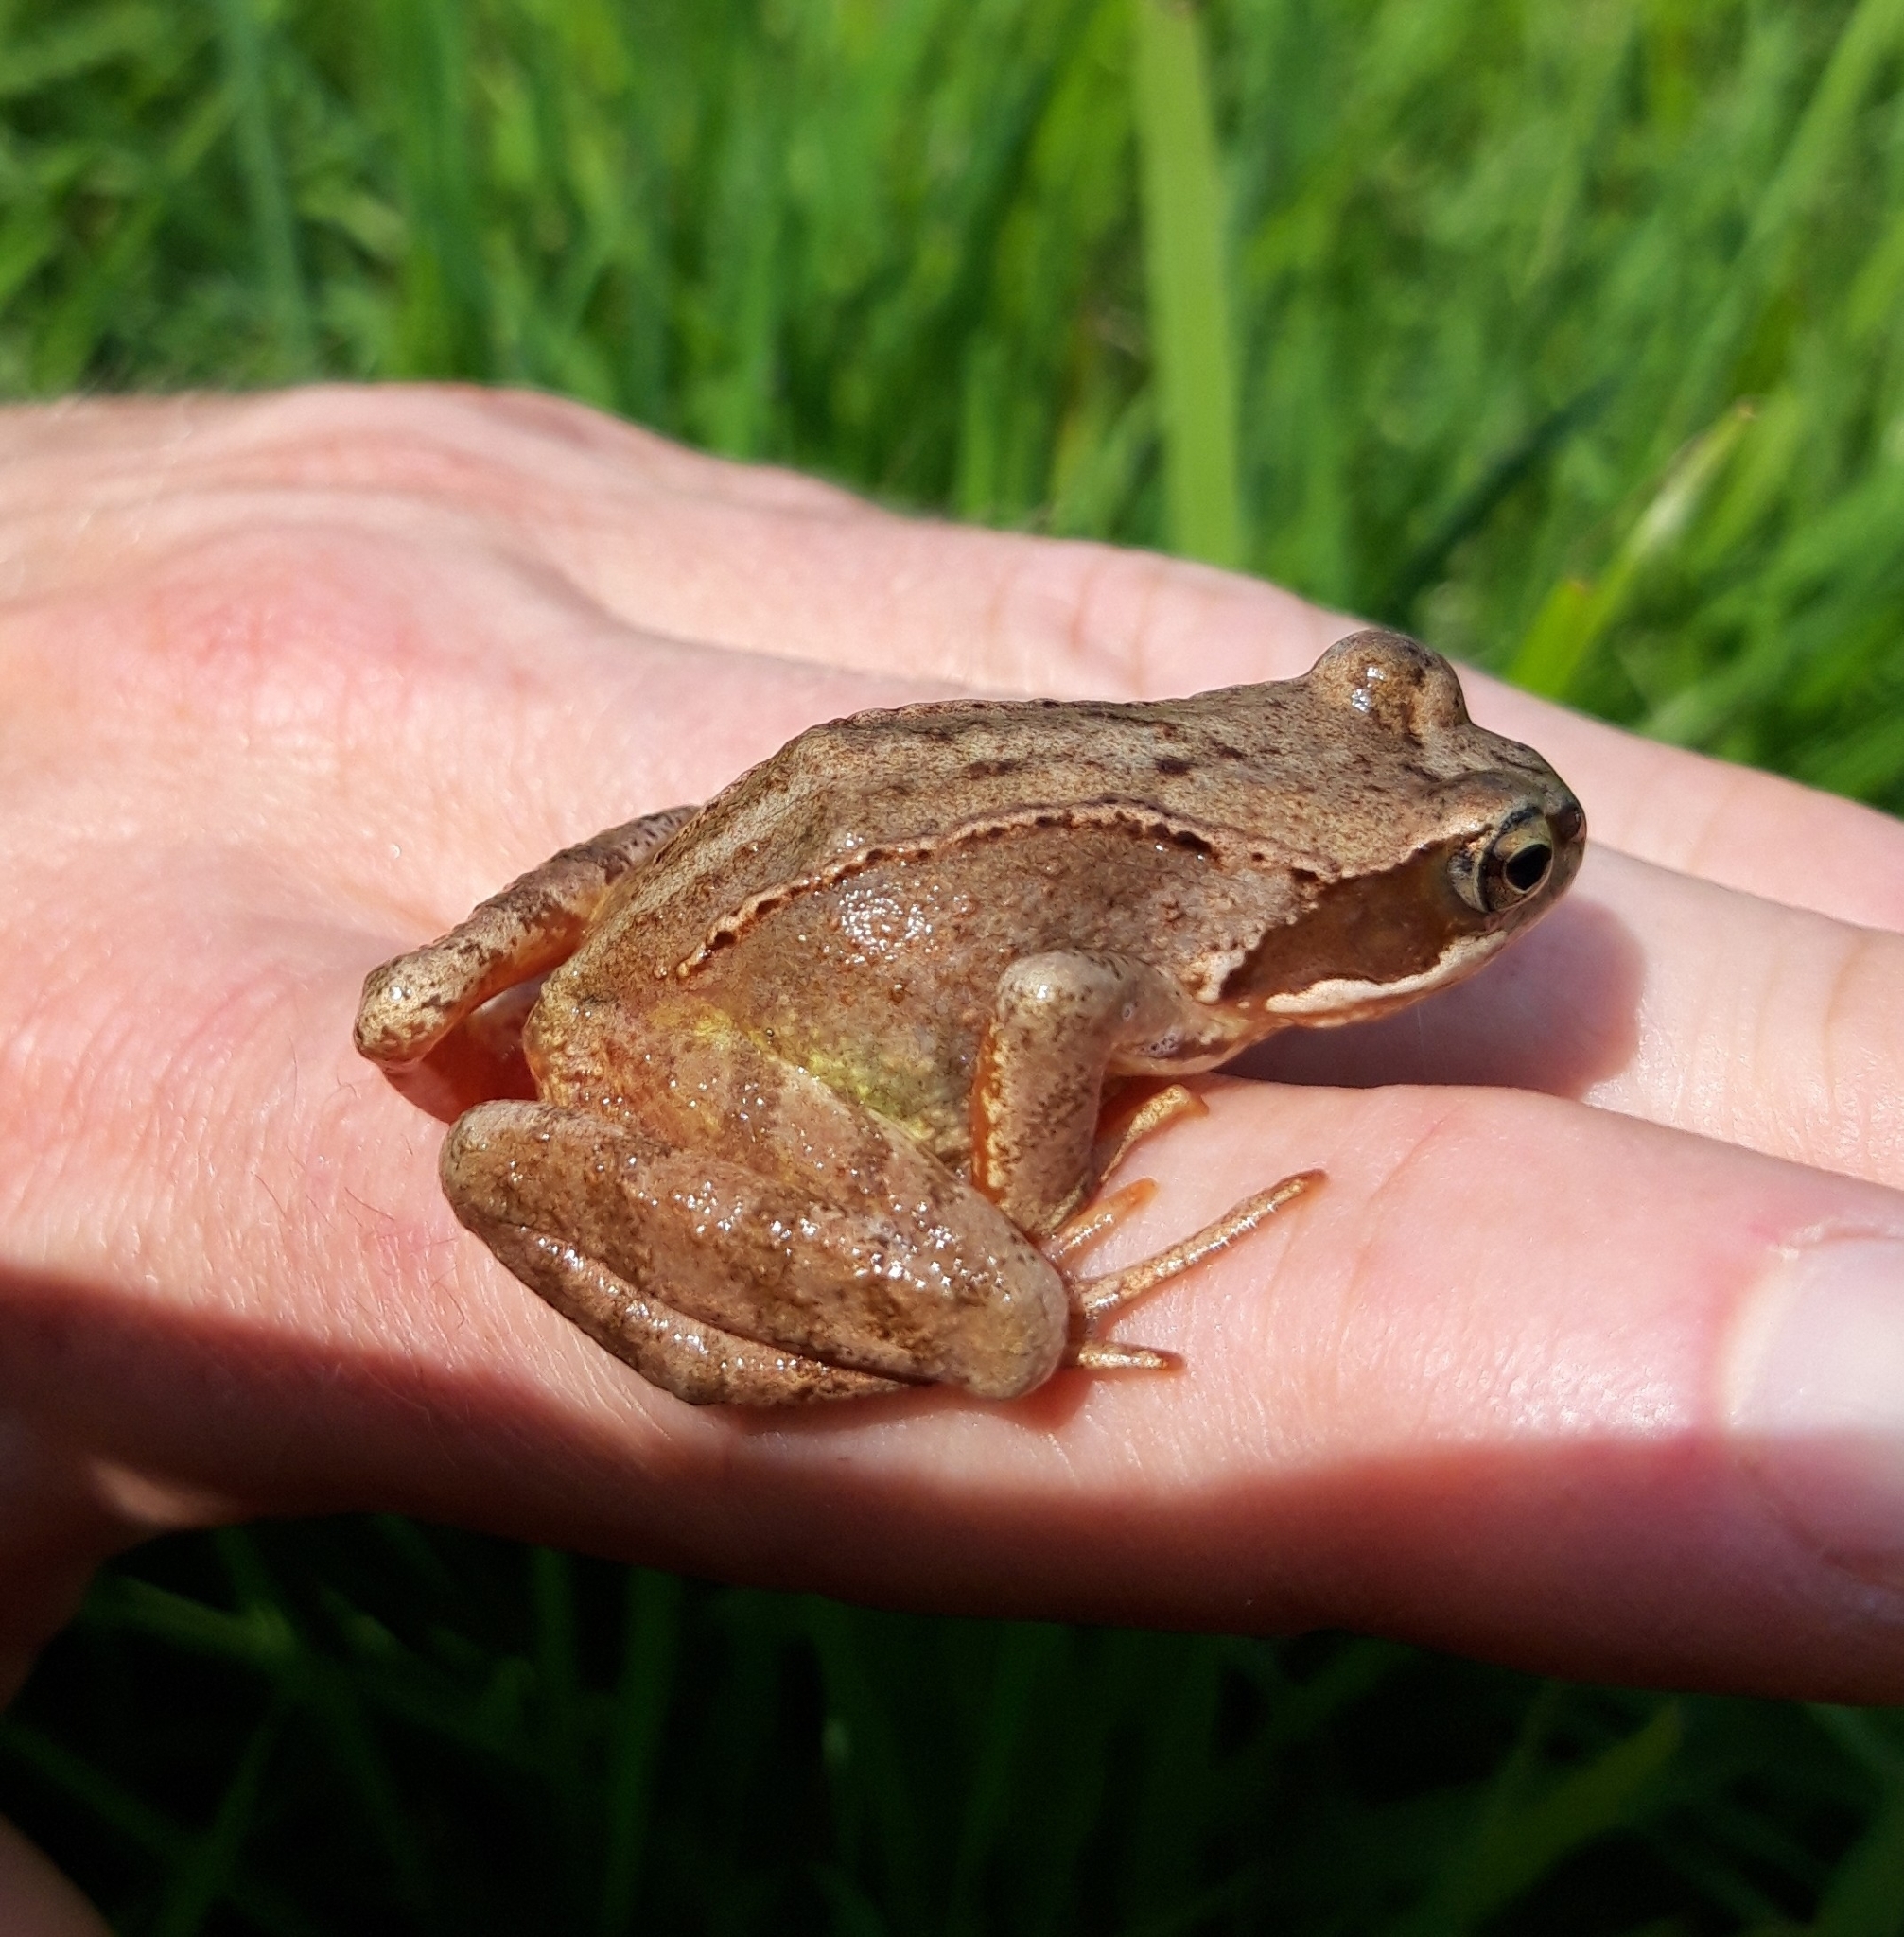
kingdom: Animalia
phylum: Chordata
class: Amphibia
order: Anura
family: Ranidae
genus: Rana
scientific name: Rana temporaria
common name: Common frog
